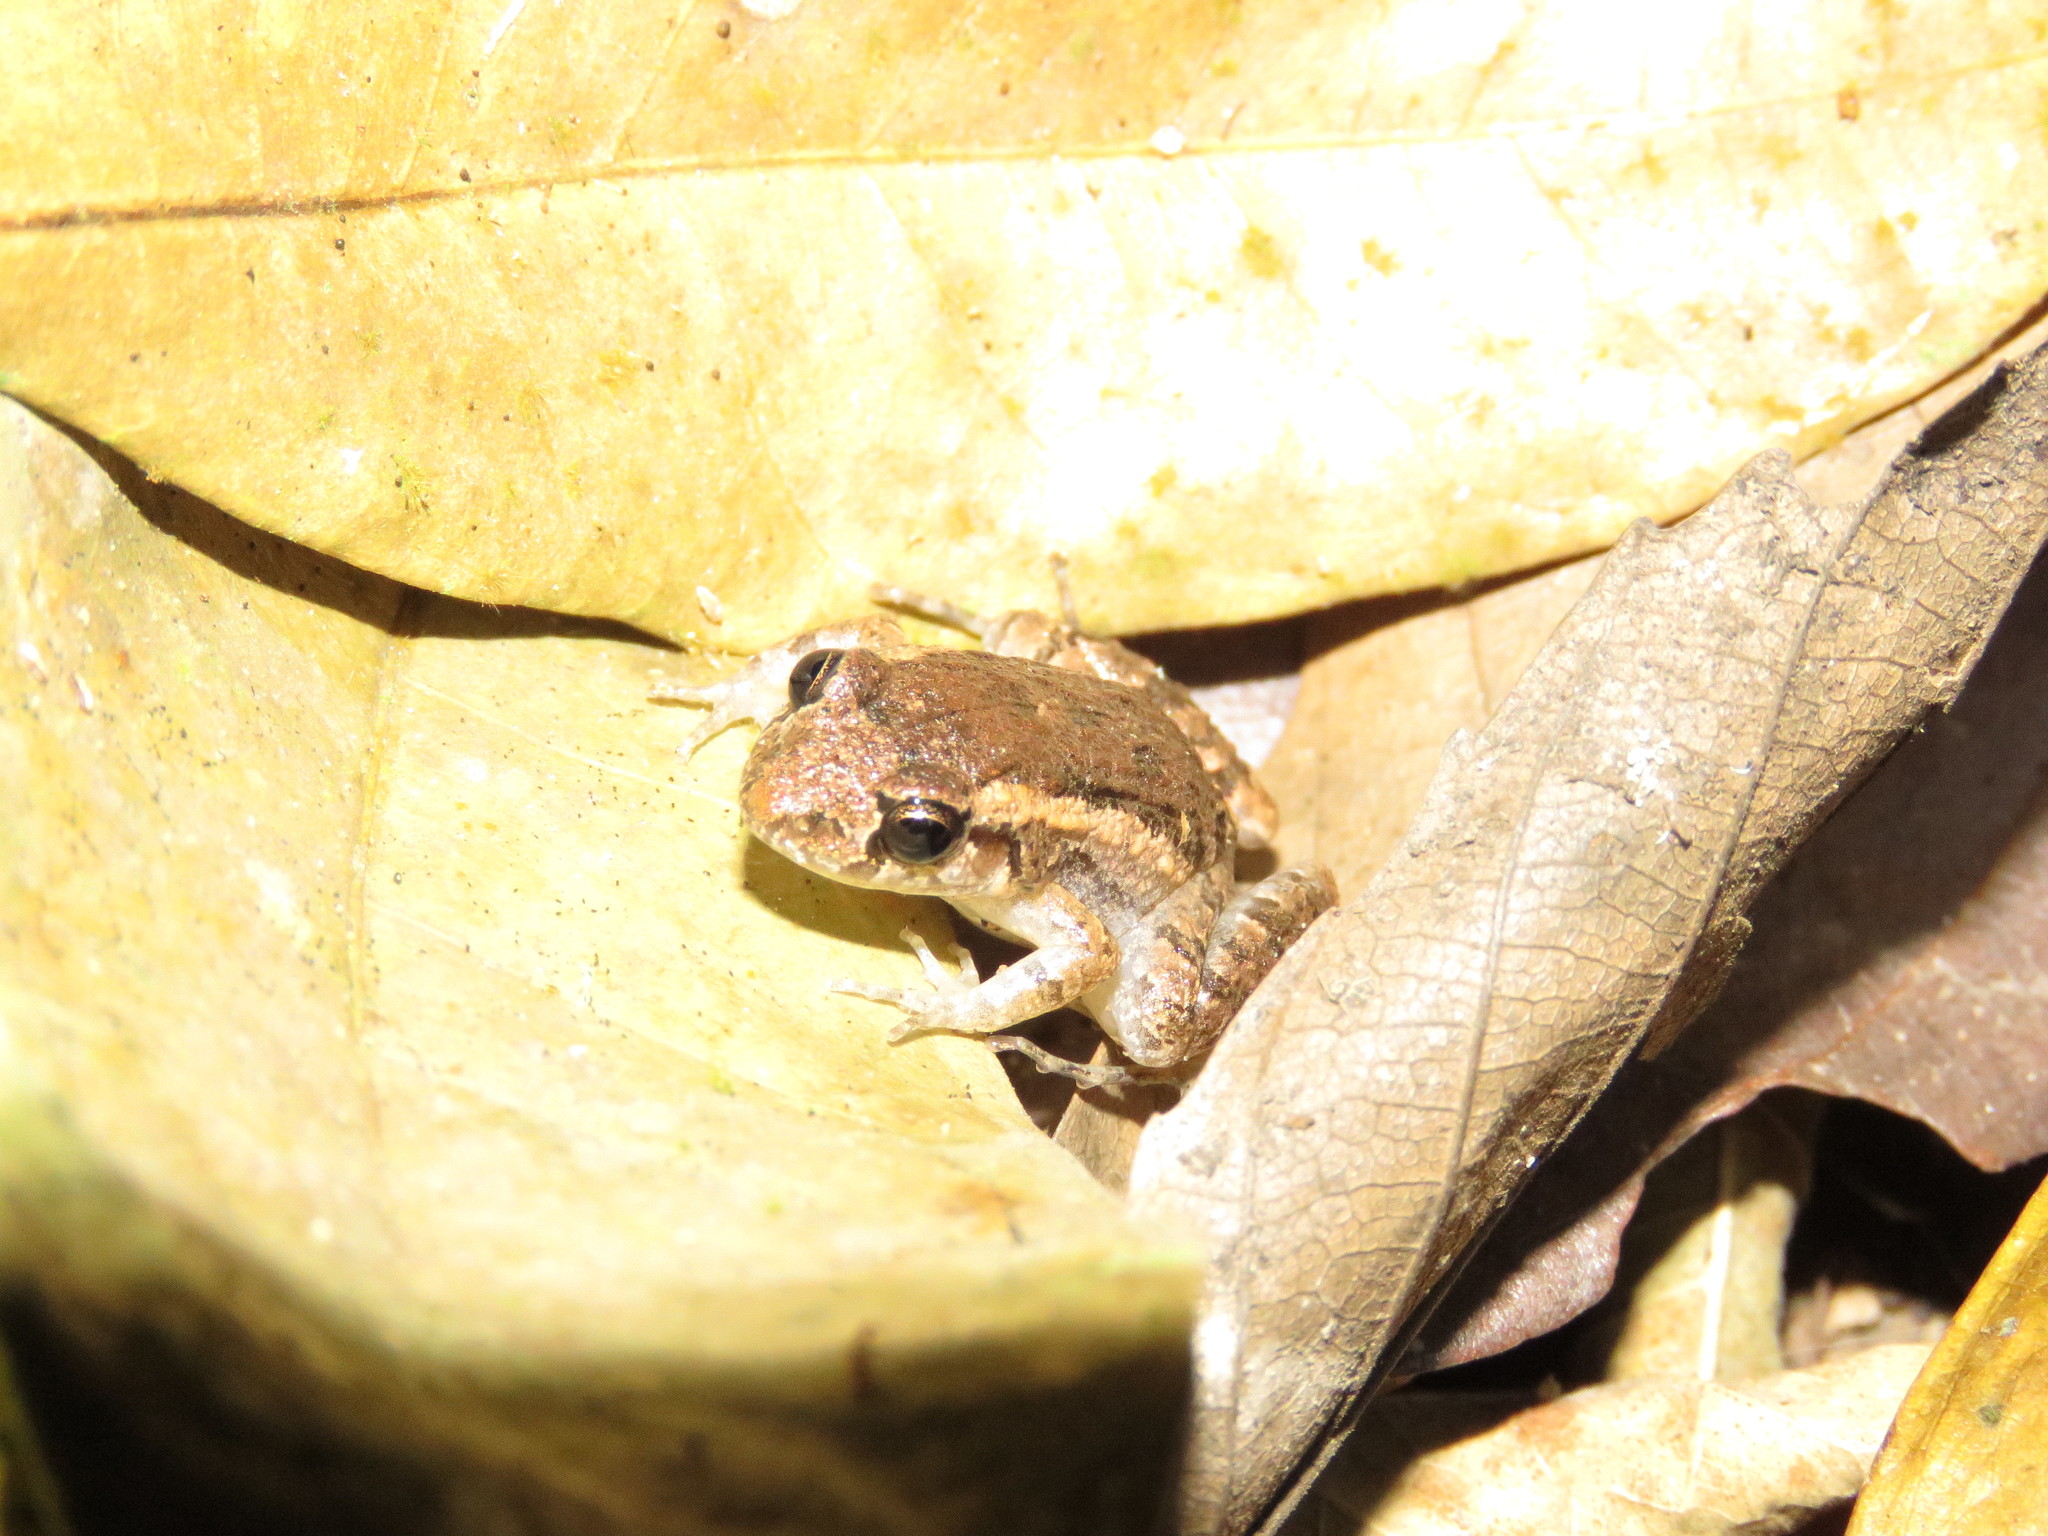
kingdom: Animalia
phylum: Chordata
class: Amphibia
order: Anura
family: Leptodactylidae
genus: Adenomera
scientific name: Adenomera chicomendesi
